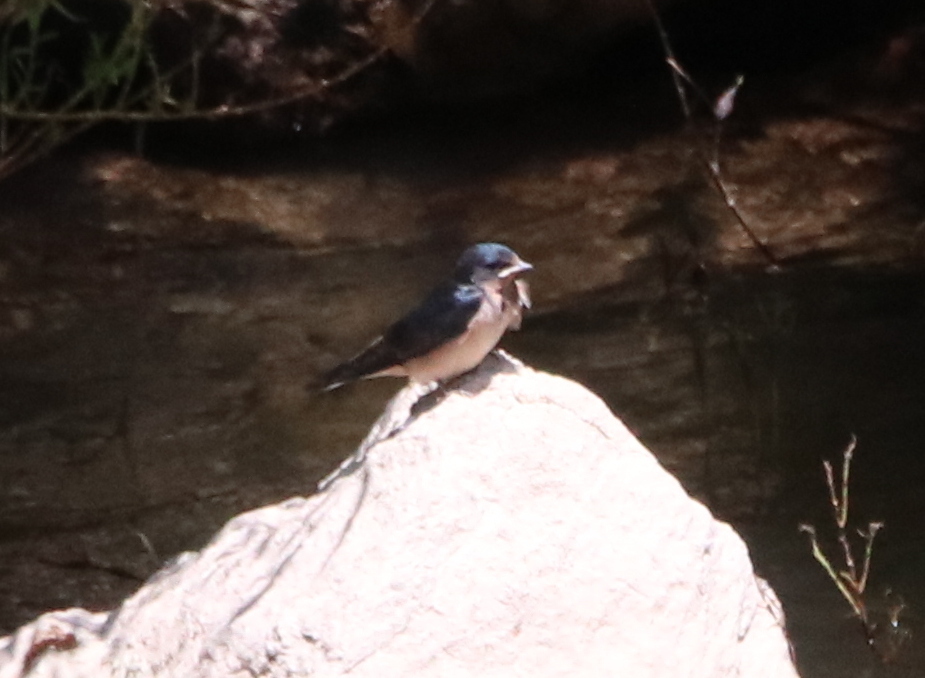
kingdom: Animalia
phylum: Chordata
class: Aves
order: Passeriformes
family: Hirundinidae
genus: Hirundo
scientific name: Hirundo rustica
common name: Barn swallow
